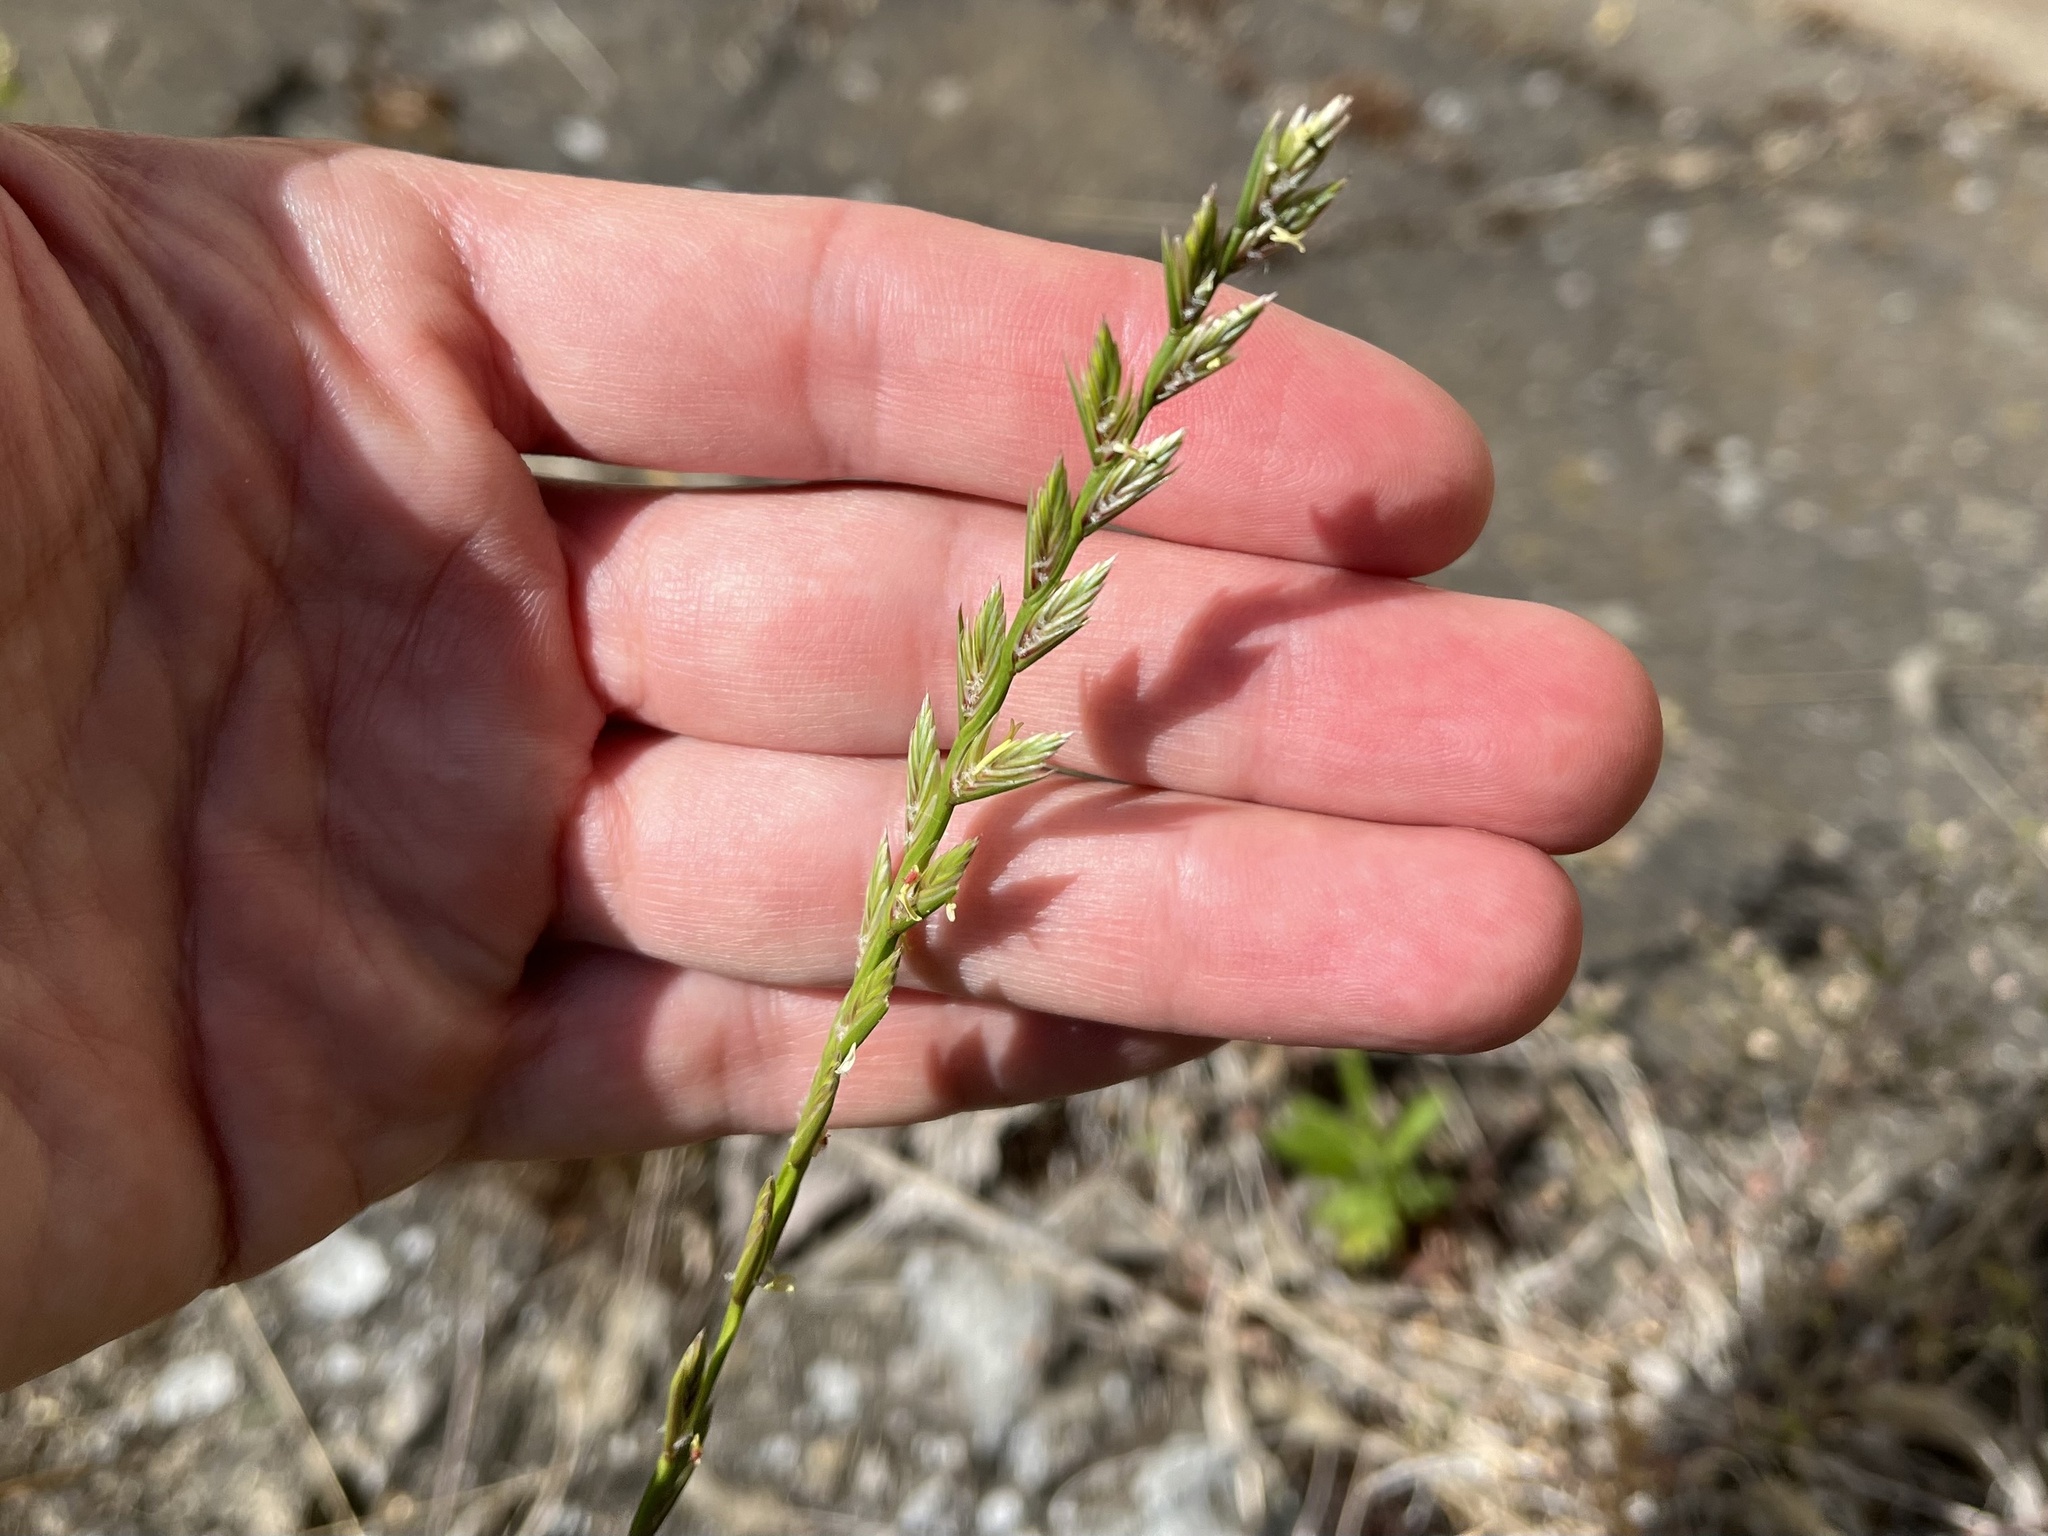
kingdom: Plantae
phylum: Tracheophyta
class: Liliopsida
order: Poales
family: Poaceae
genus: Lolium
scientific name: Lolium perenne
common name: Perennial ryegrass
